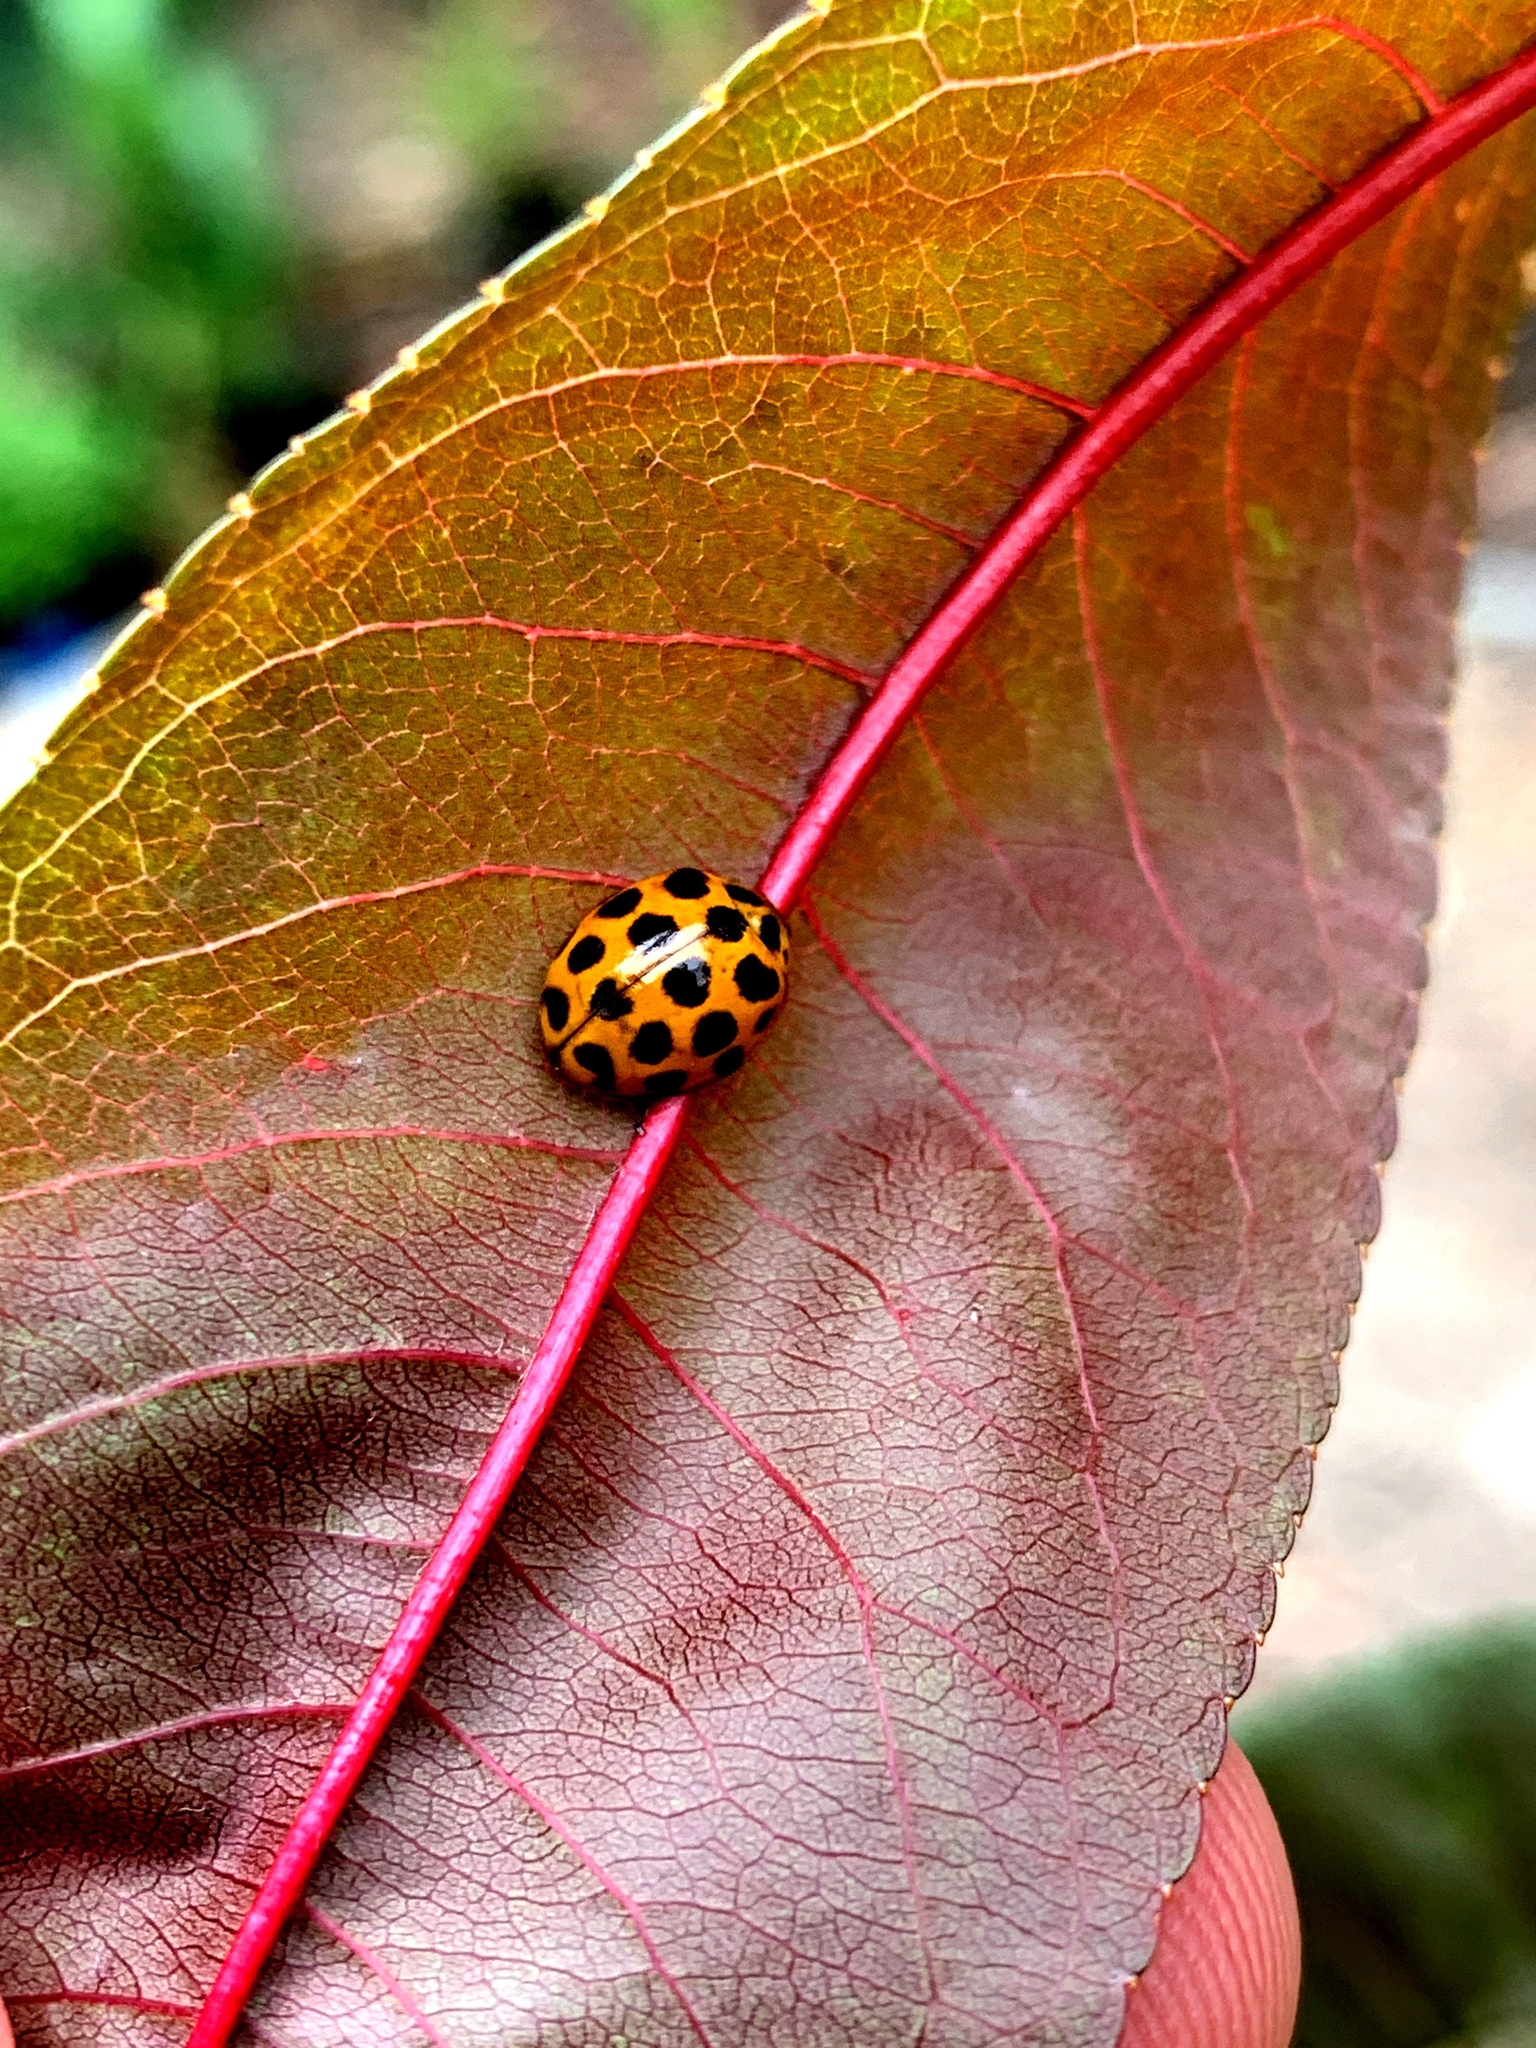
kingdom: Animalia
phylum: Arthropoda
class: Insecta
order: Coleoptera
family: Coccinellidae
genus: Harmonia
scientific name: Harmonia conformis
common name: Common spotted ladybird beetle
